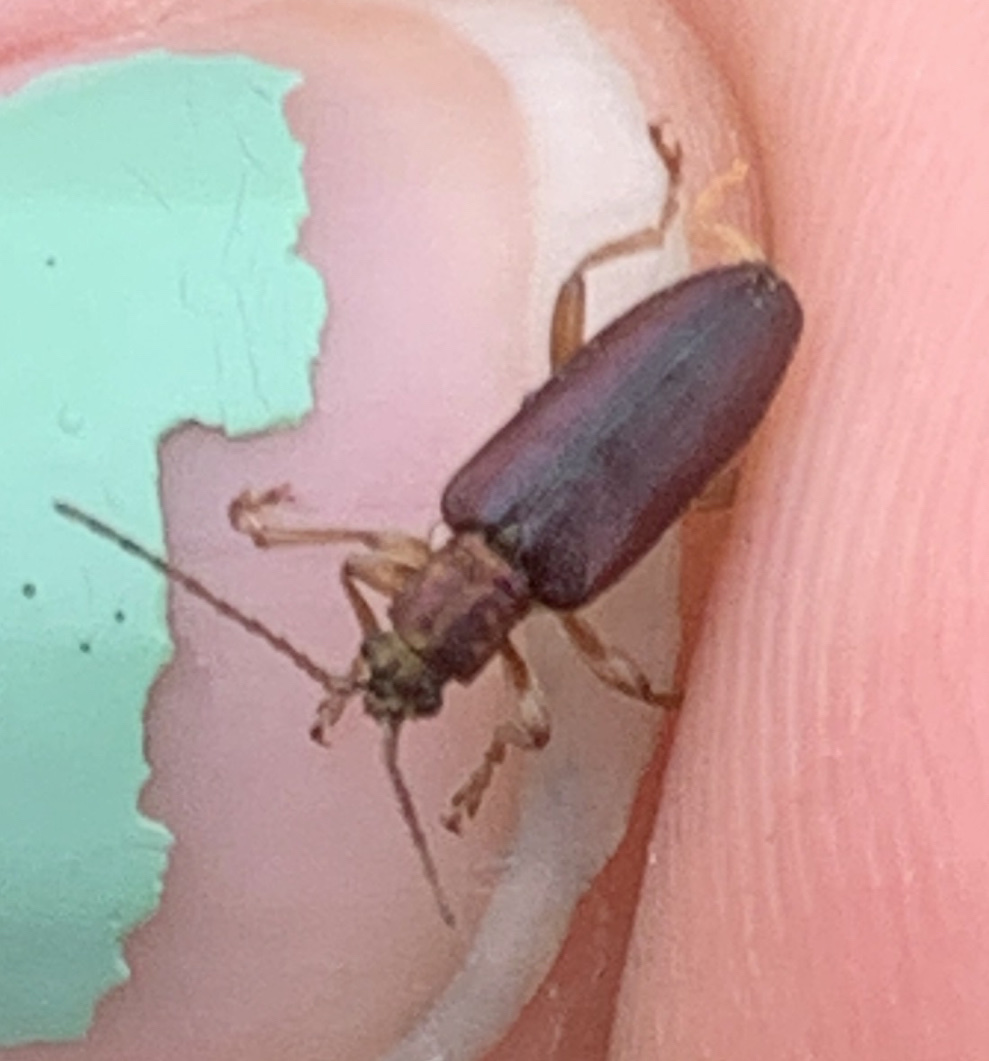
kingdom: Animalia
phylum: Arthropoda
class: Insecta
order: Coleoptera
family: Chrysomelidae
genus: Plateumaris
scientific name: Plateumaris robusta
